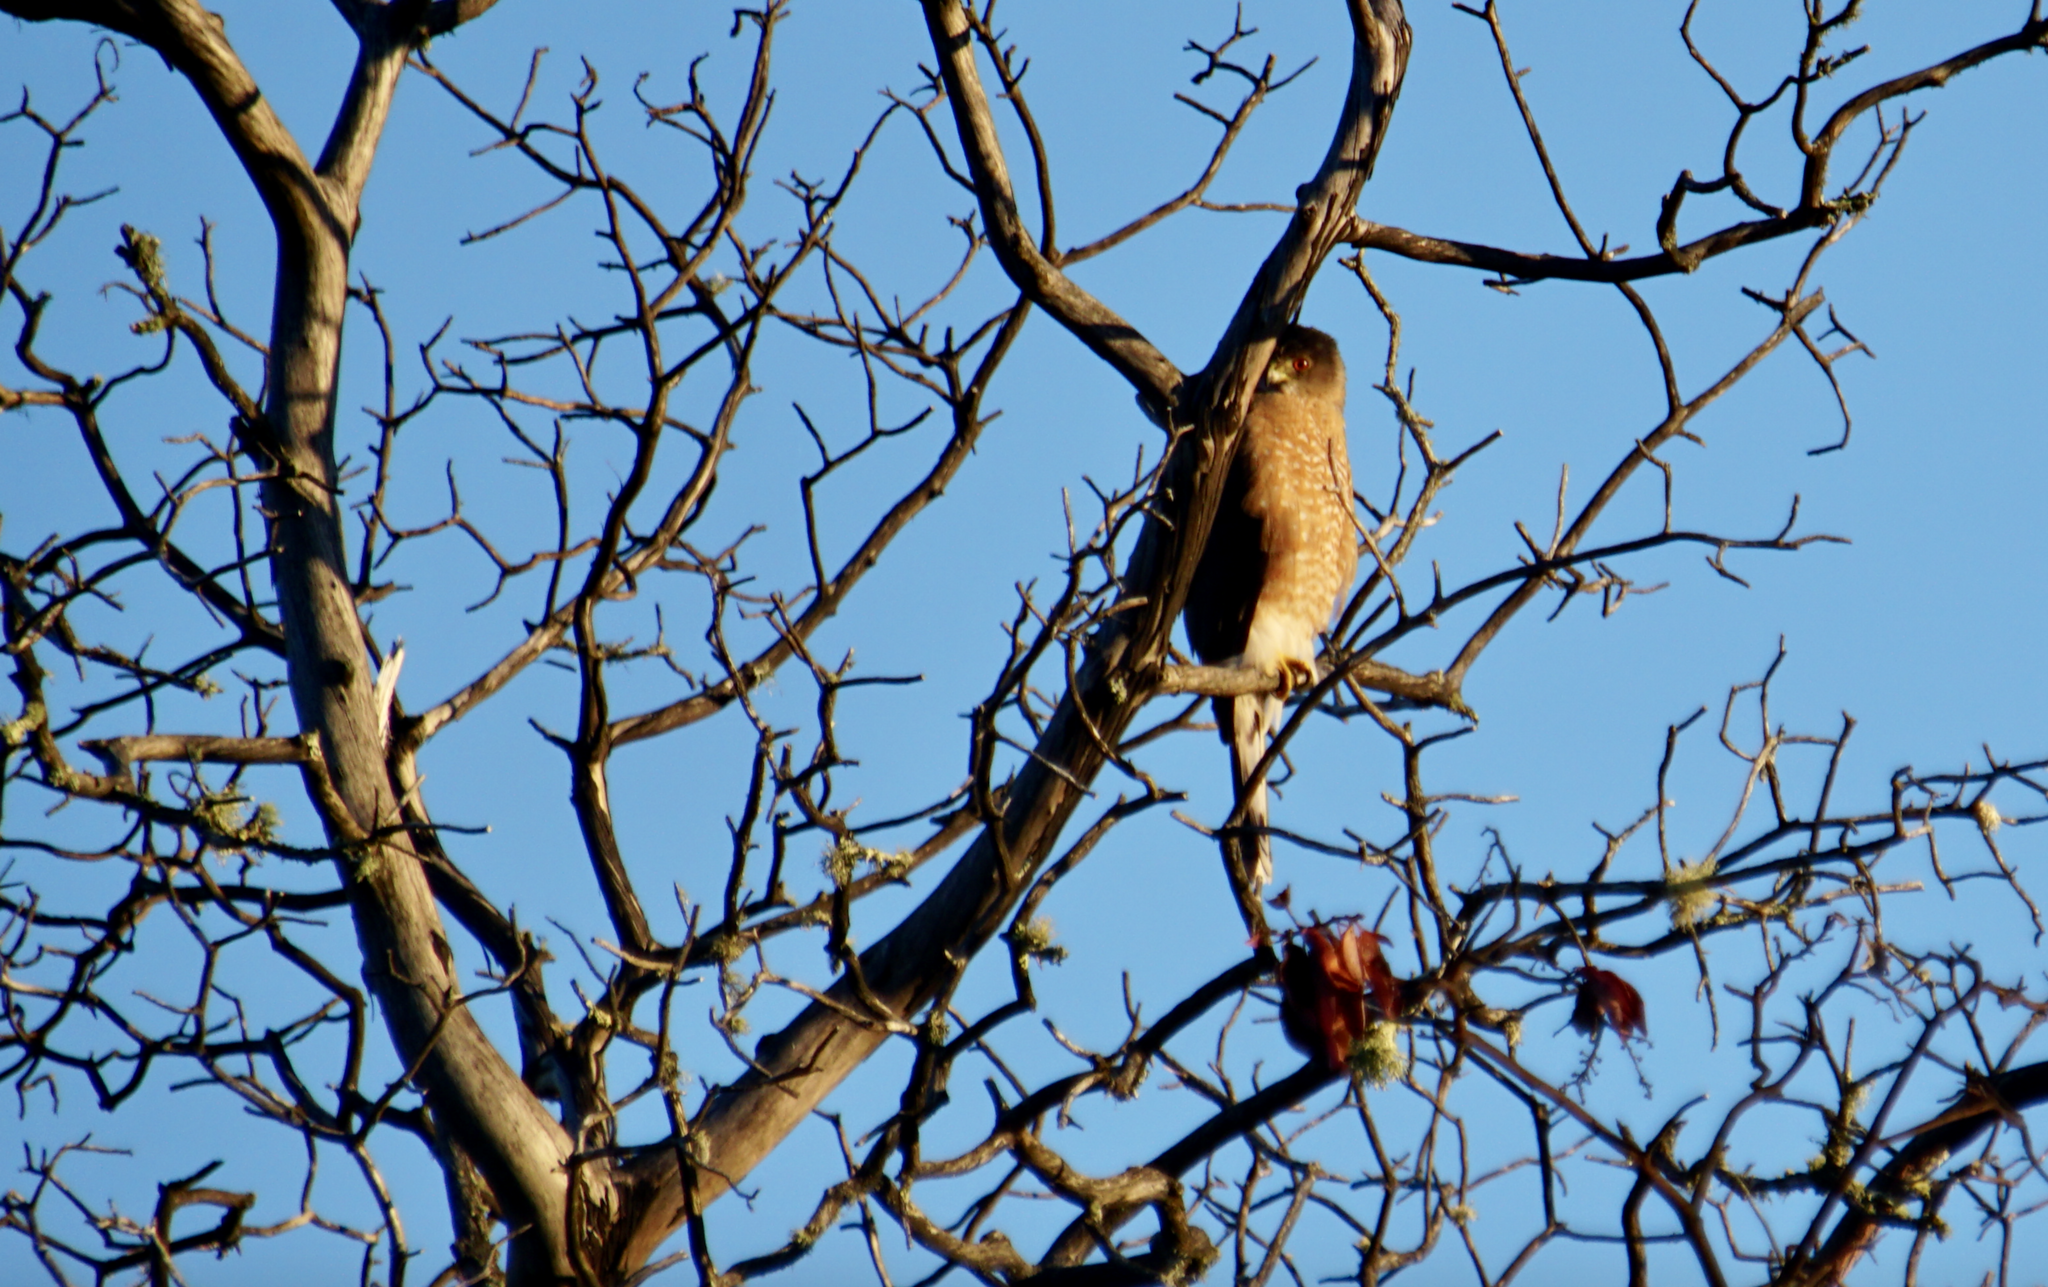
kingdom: Animalia
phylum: Chordata
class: Aves
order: Accipitriformes
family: Accipitridae
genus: Accipiter
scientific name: Accipiter cooperii
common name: Cooper's hawk
